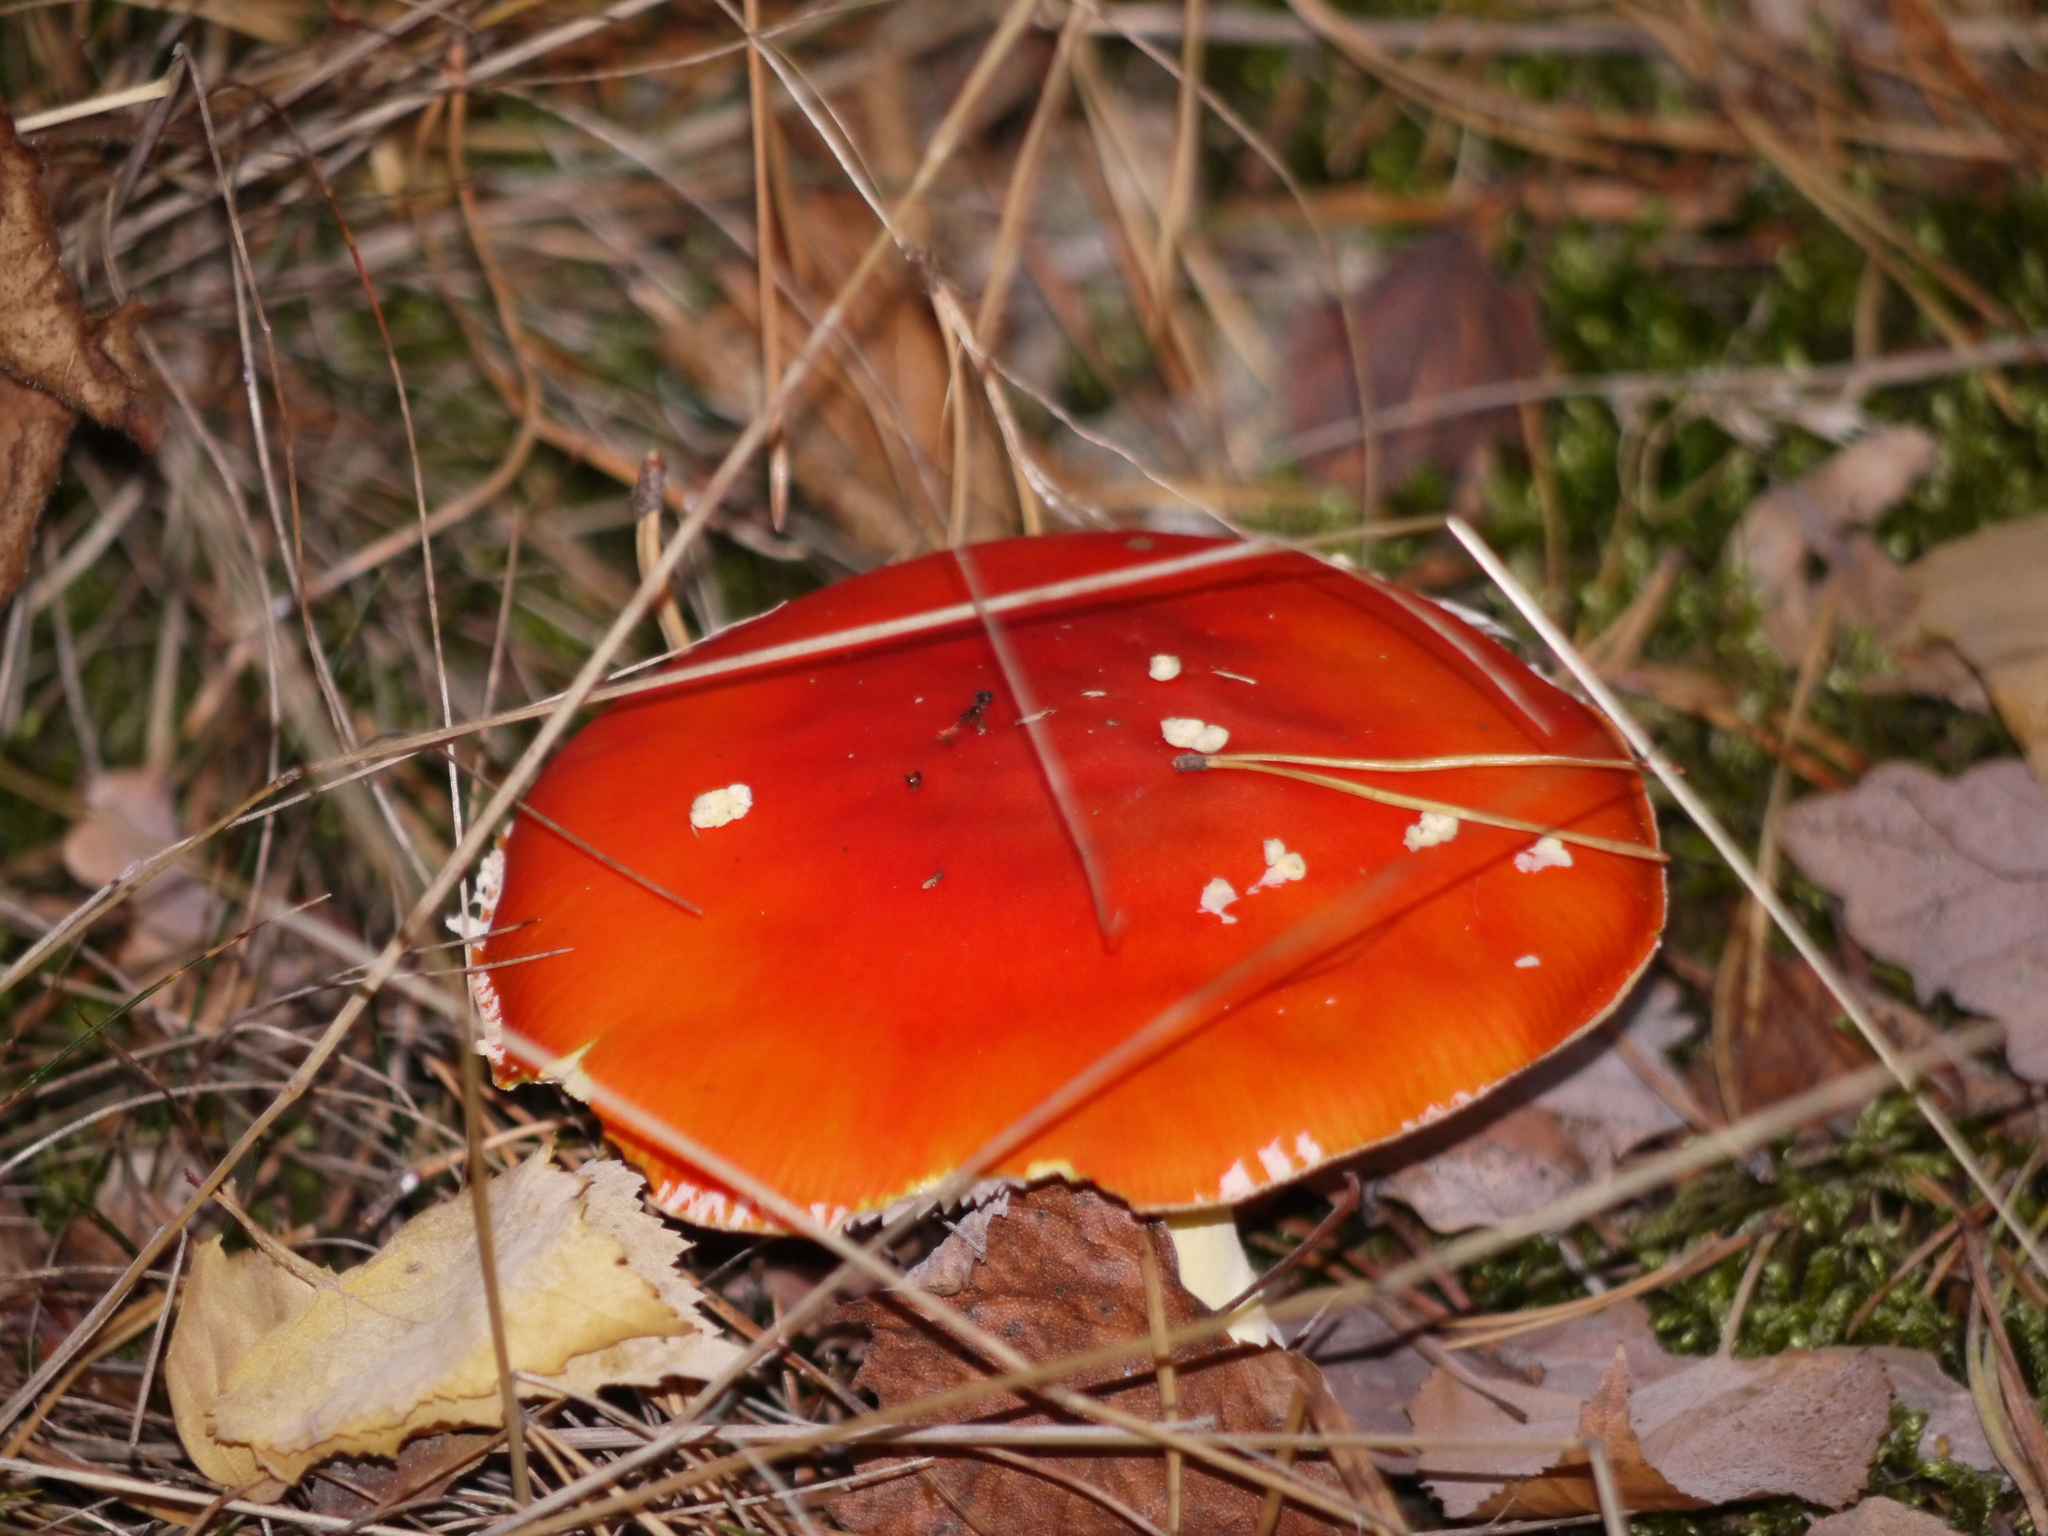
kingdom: Fungi
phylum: Basidiomycota
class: Agaricomycetes
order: Agaricales
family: Amanitaceae
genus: Amanita
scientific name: Amanita muscaria
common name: Fly agaric
